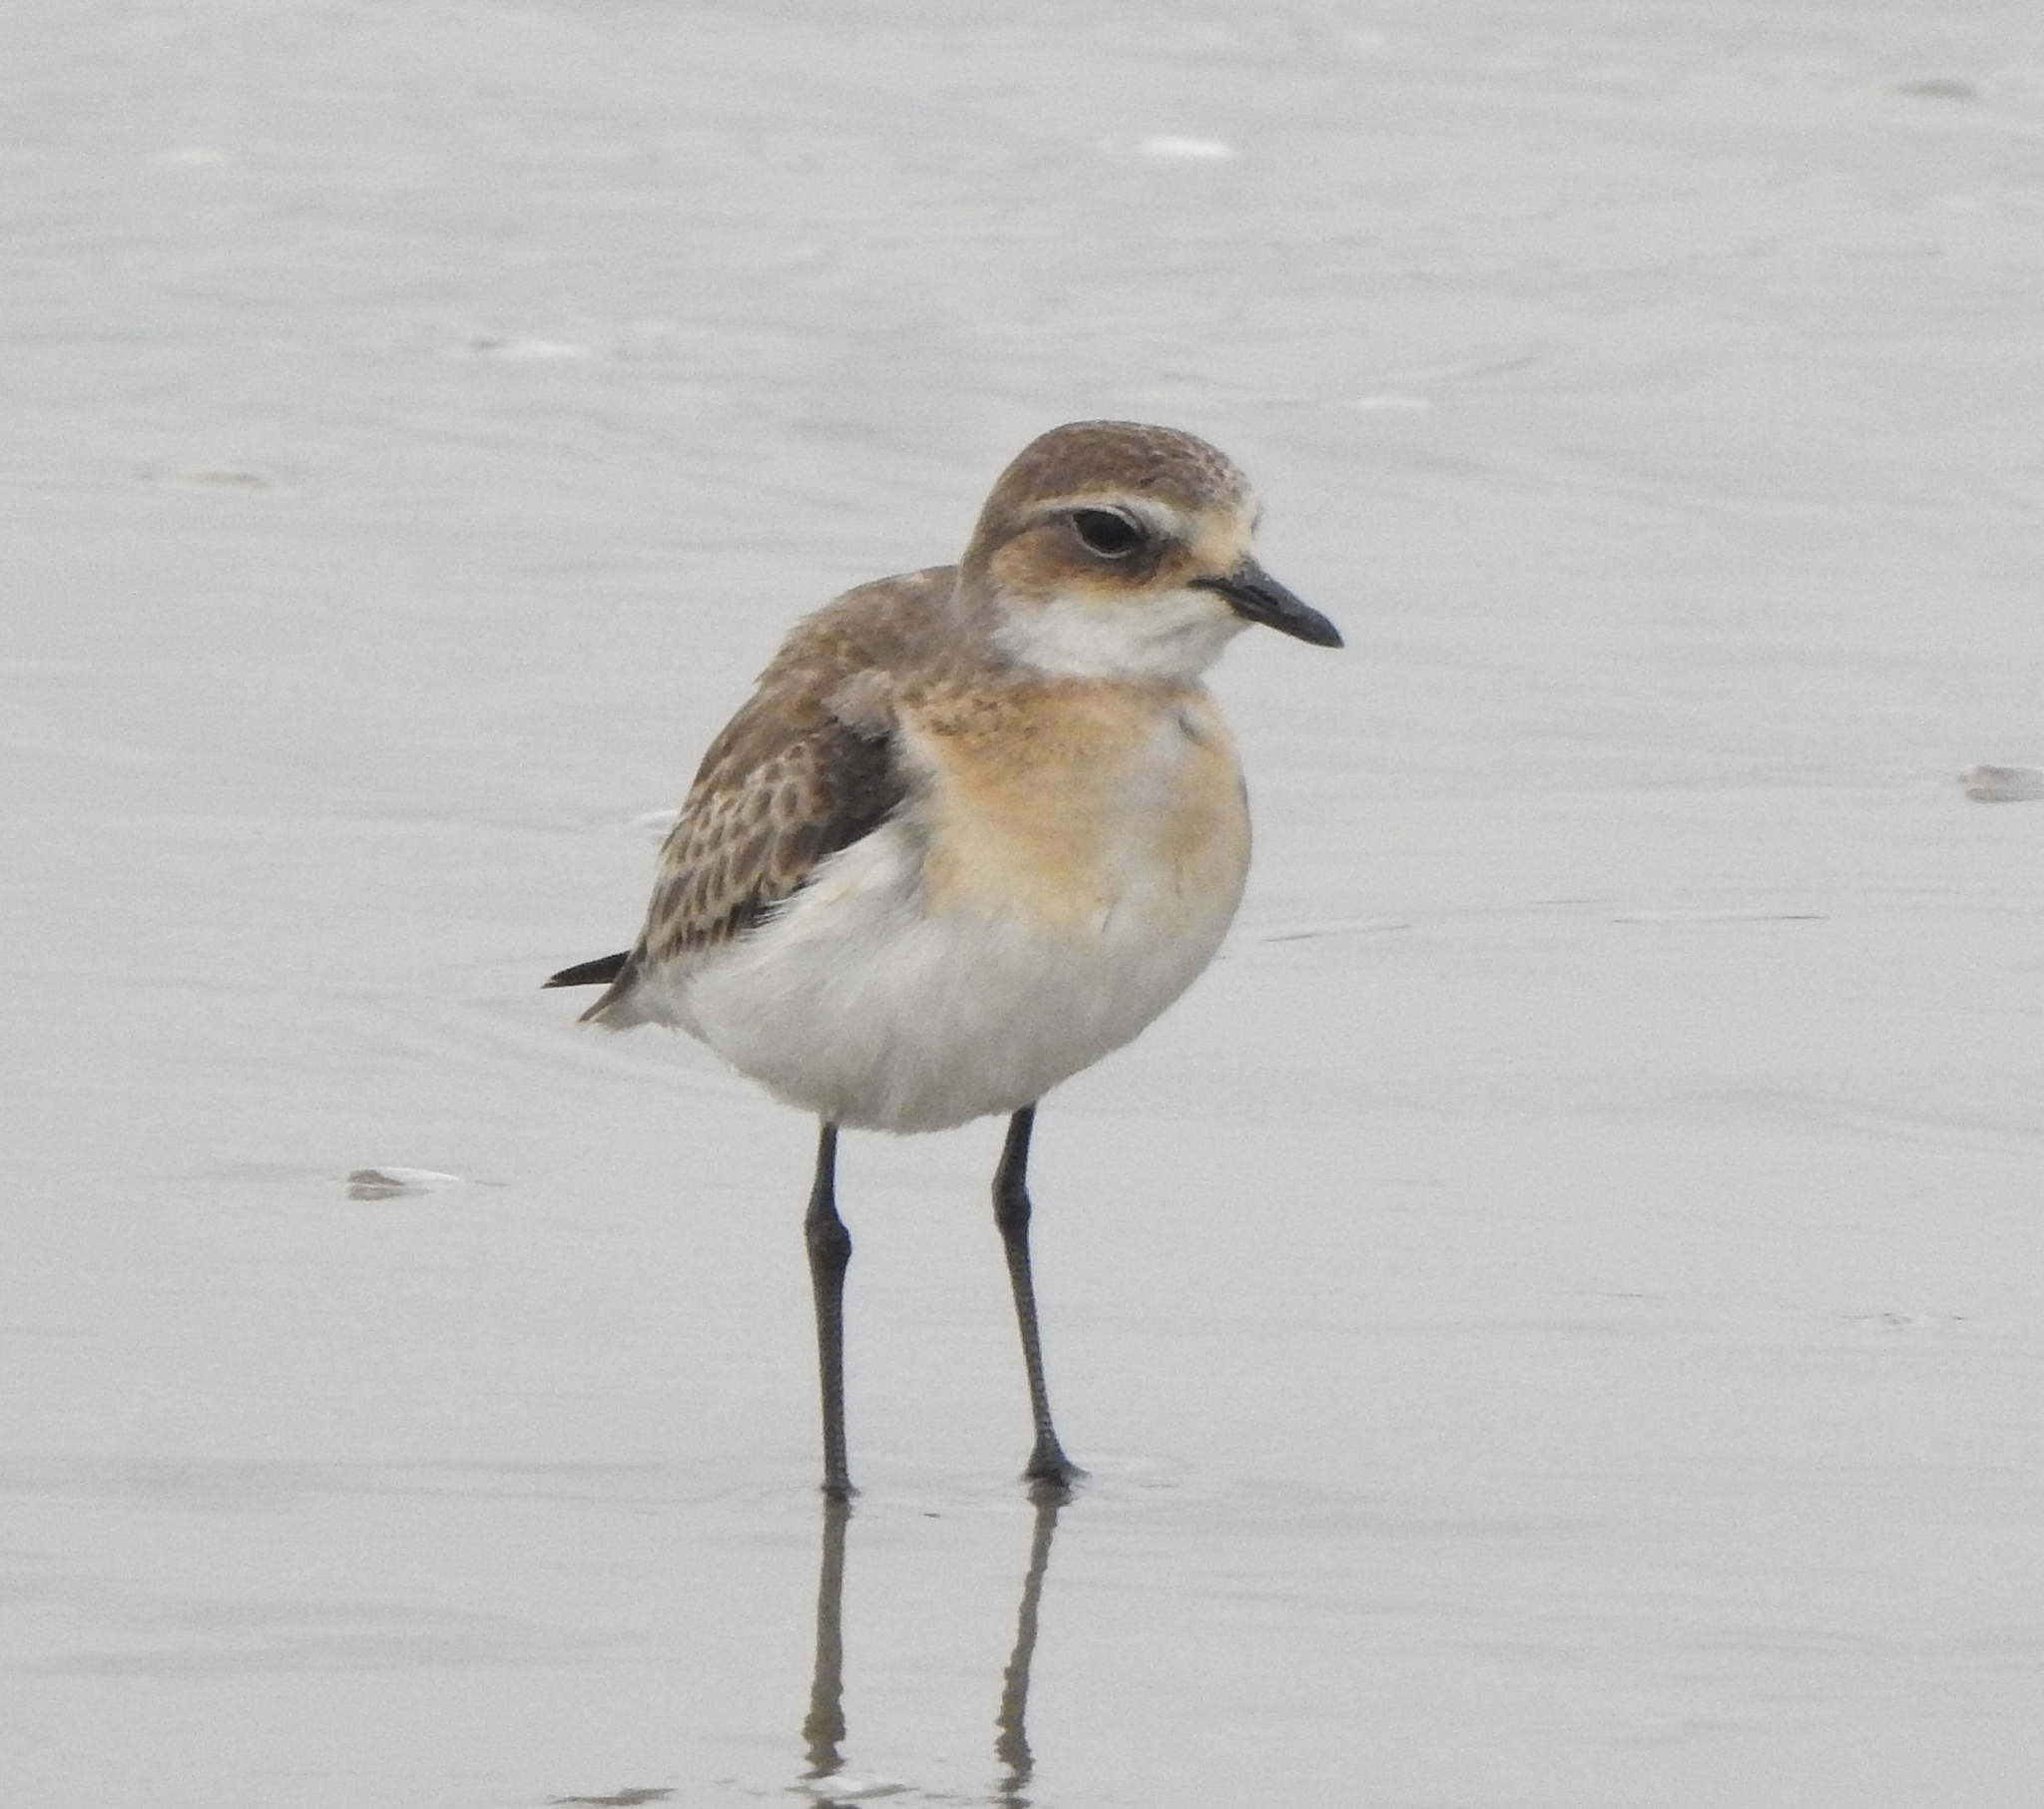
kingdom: Animalia
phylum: Chordata
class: Aves
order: Charadriiformes
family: Charadriidae
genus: Anarhynchus
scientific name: Anarhynchus
